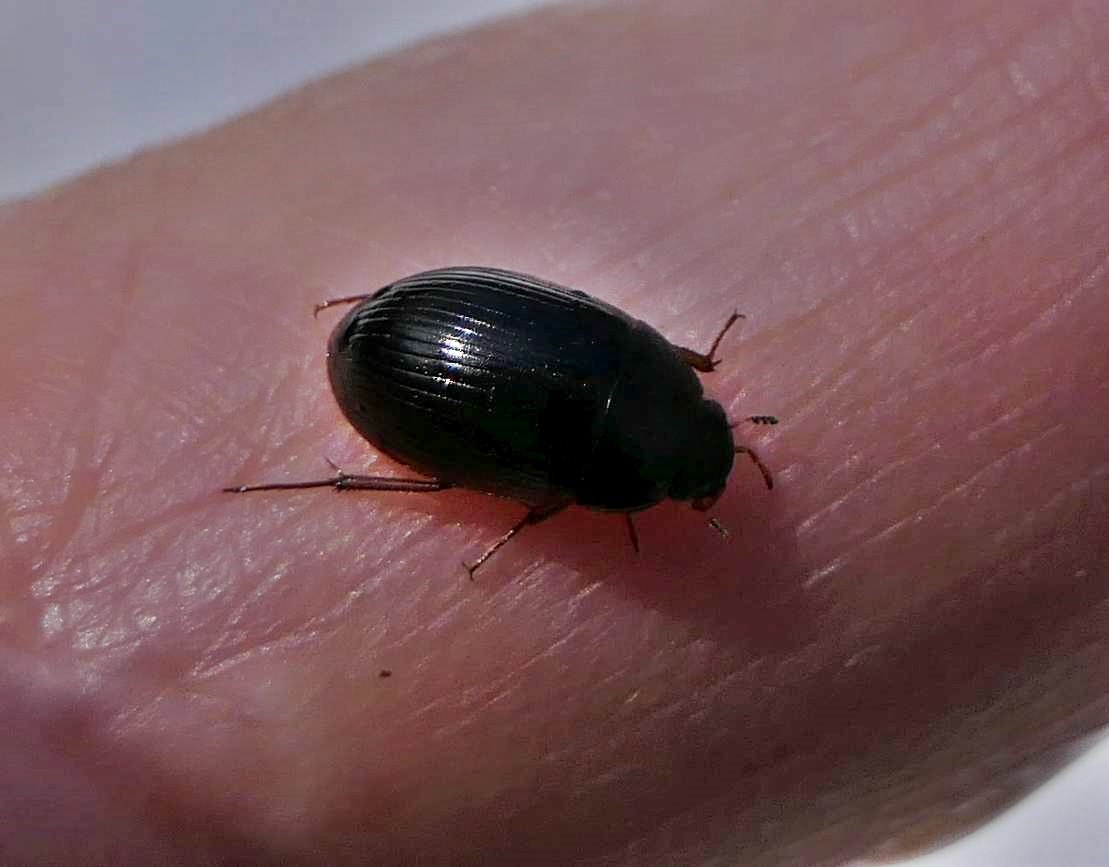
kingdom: Animalia
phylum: Arthropoda
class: Insecta
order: Coleoptera
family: Hydrophilidae
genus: Hydrobius
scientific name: Hydrobius fuscipes
